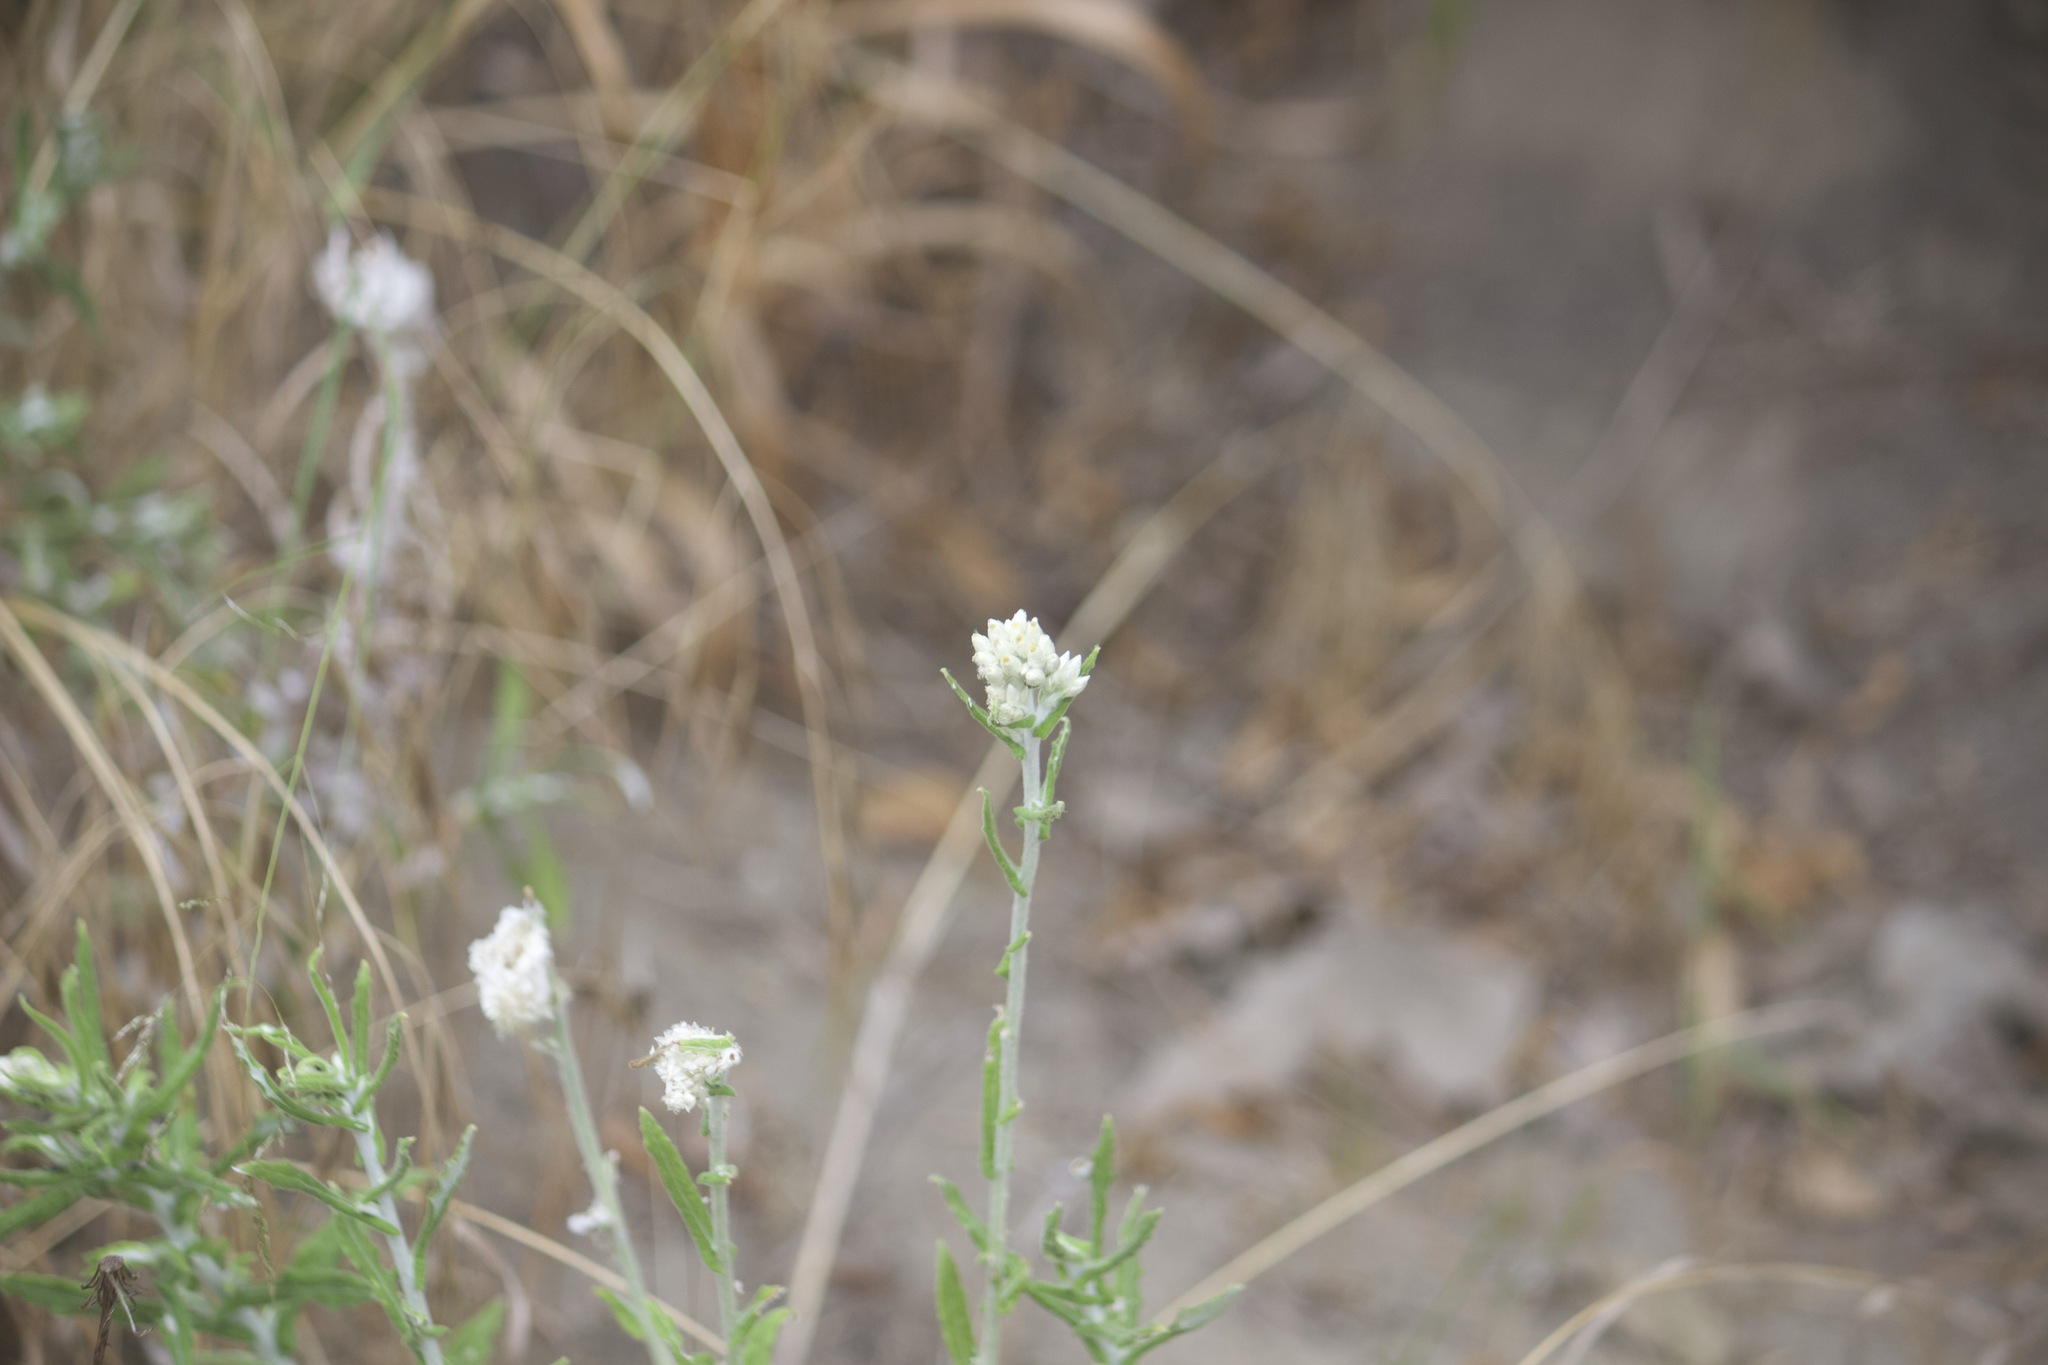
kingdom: Plantae
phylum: Tracheophyta
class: Magnoliopsida
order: Asterales
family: Asteraceae
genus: Pseudognaphalium
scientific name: Pseudognaphalium biolettii
